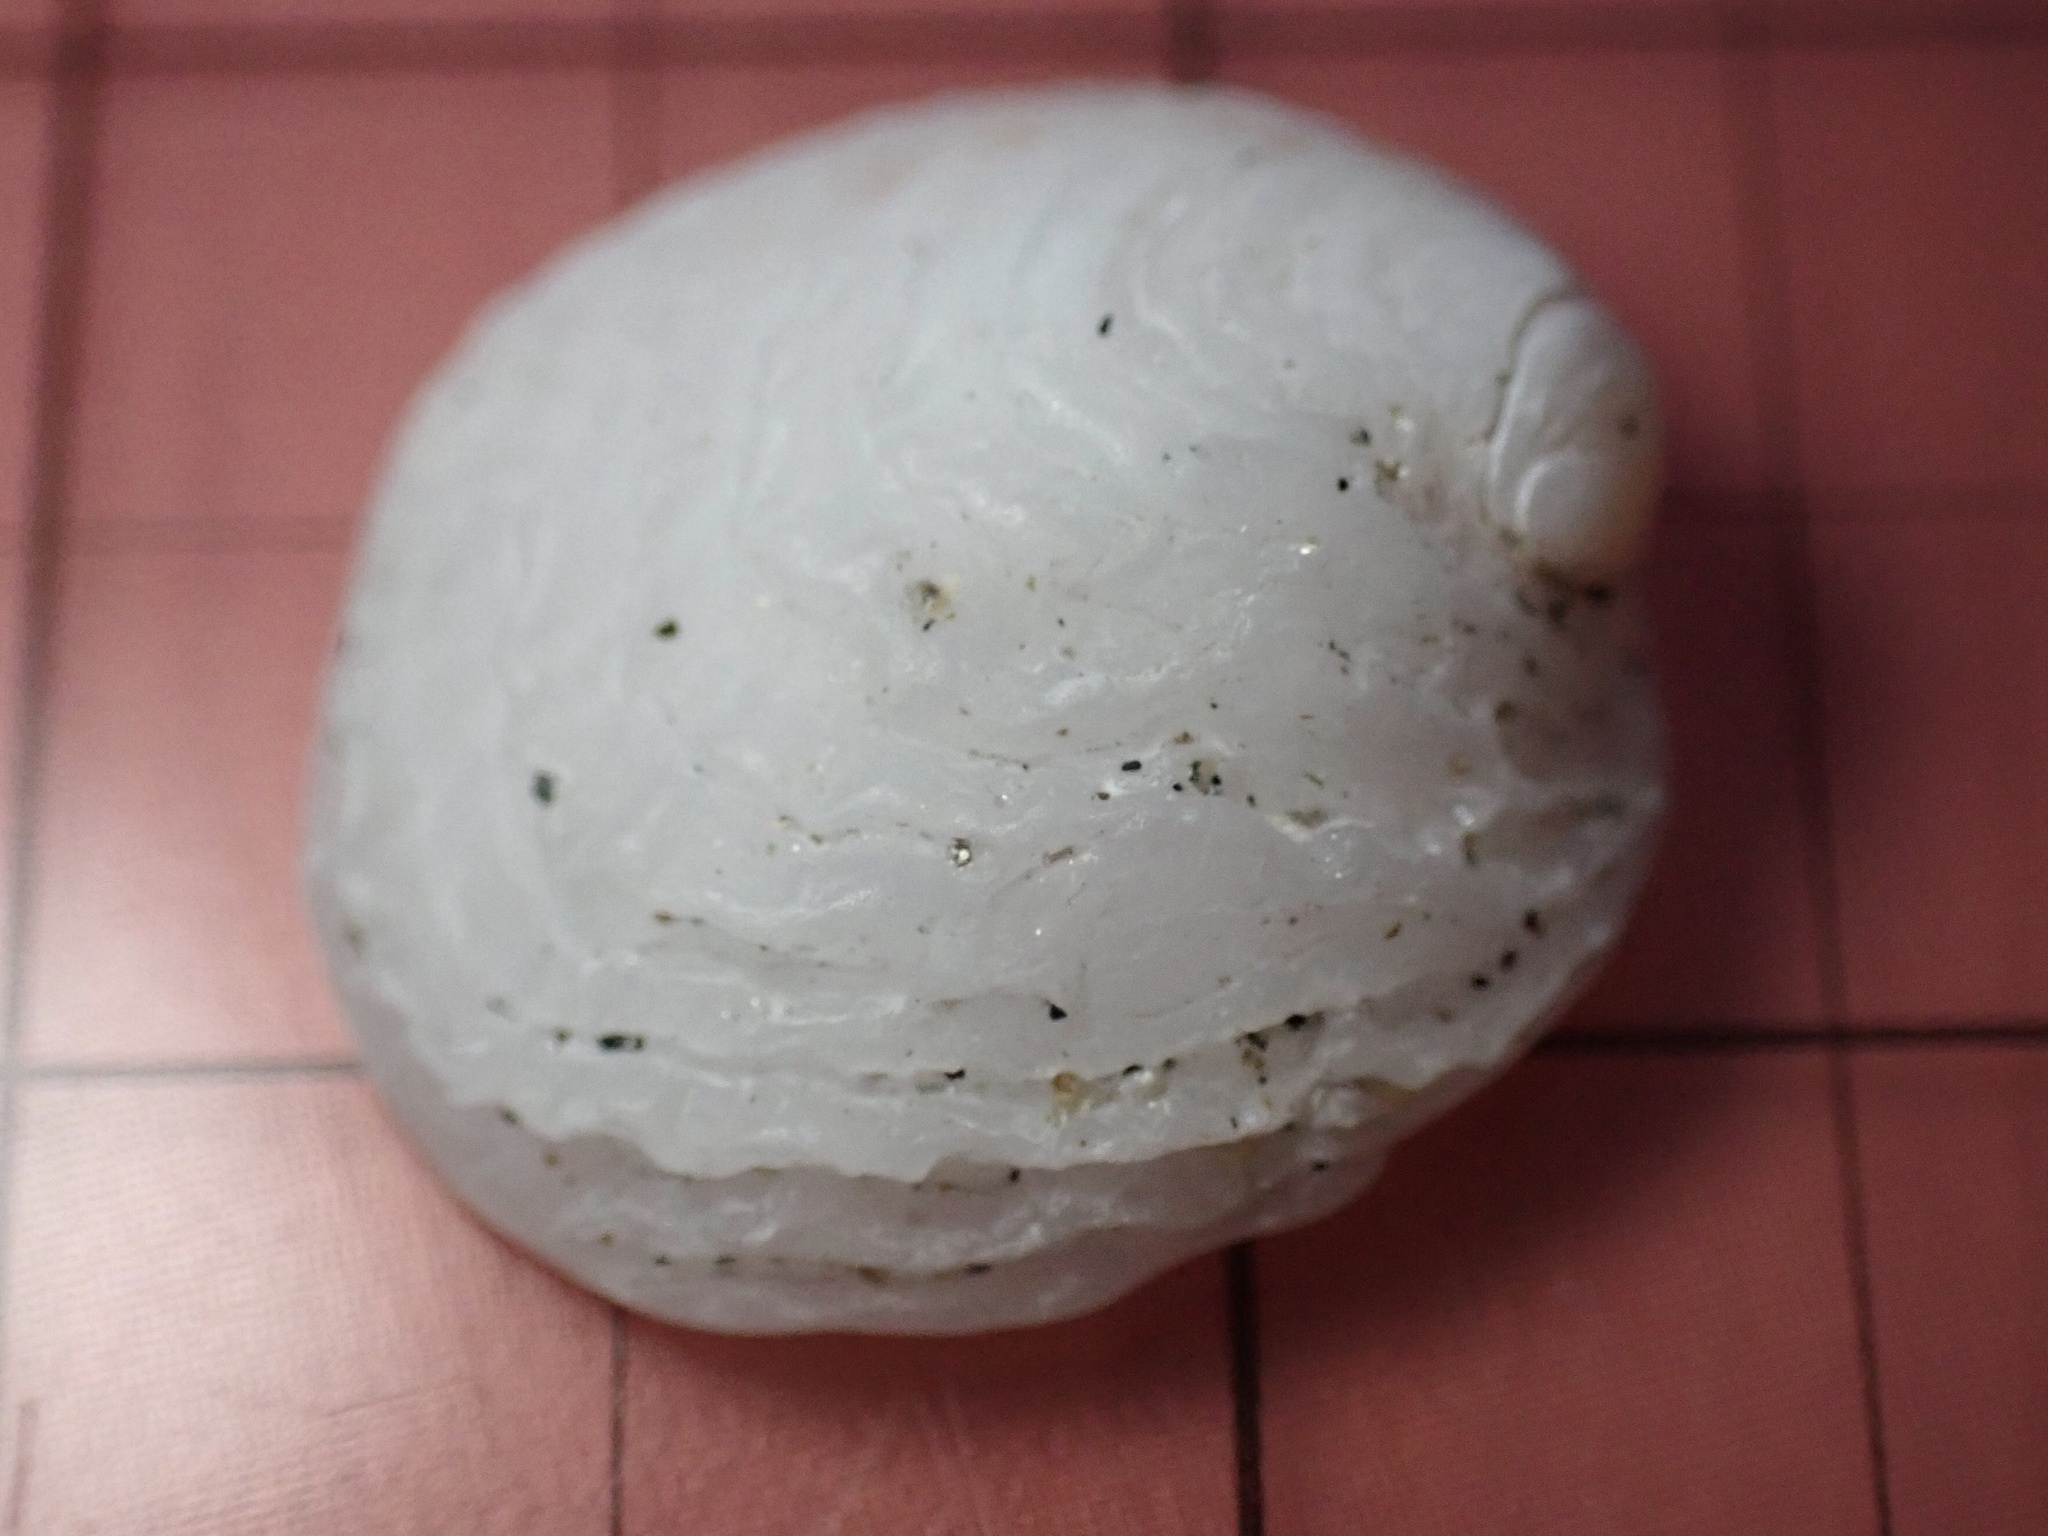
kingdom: Animalia
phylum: Mollusca
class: Gastropoda
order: Littorinimorpha
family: Hipponicidae
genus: Hipponix
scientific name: Hipponix panamensis
